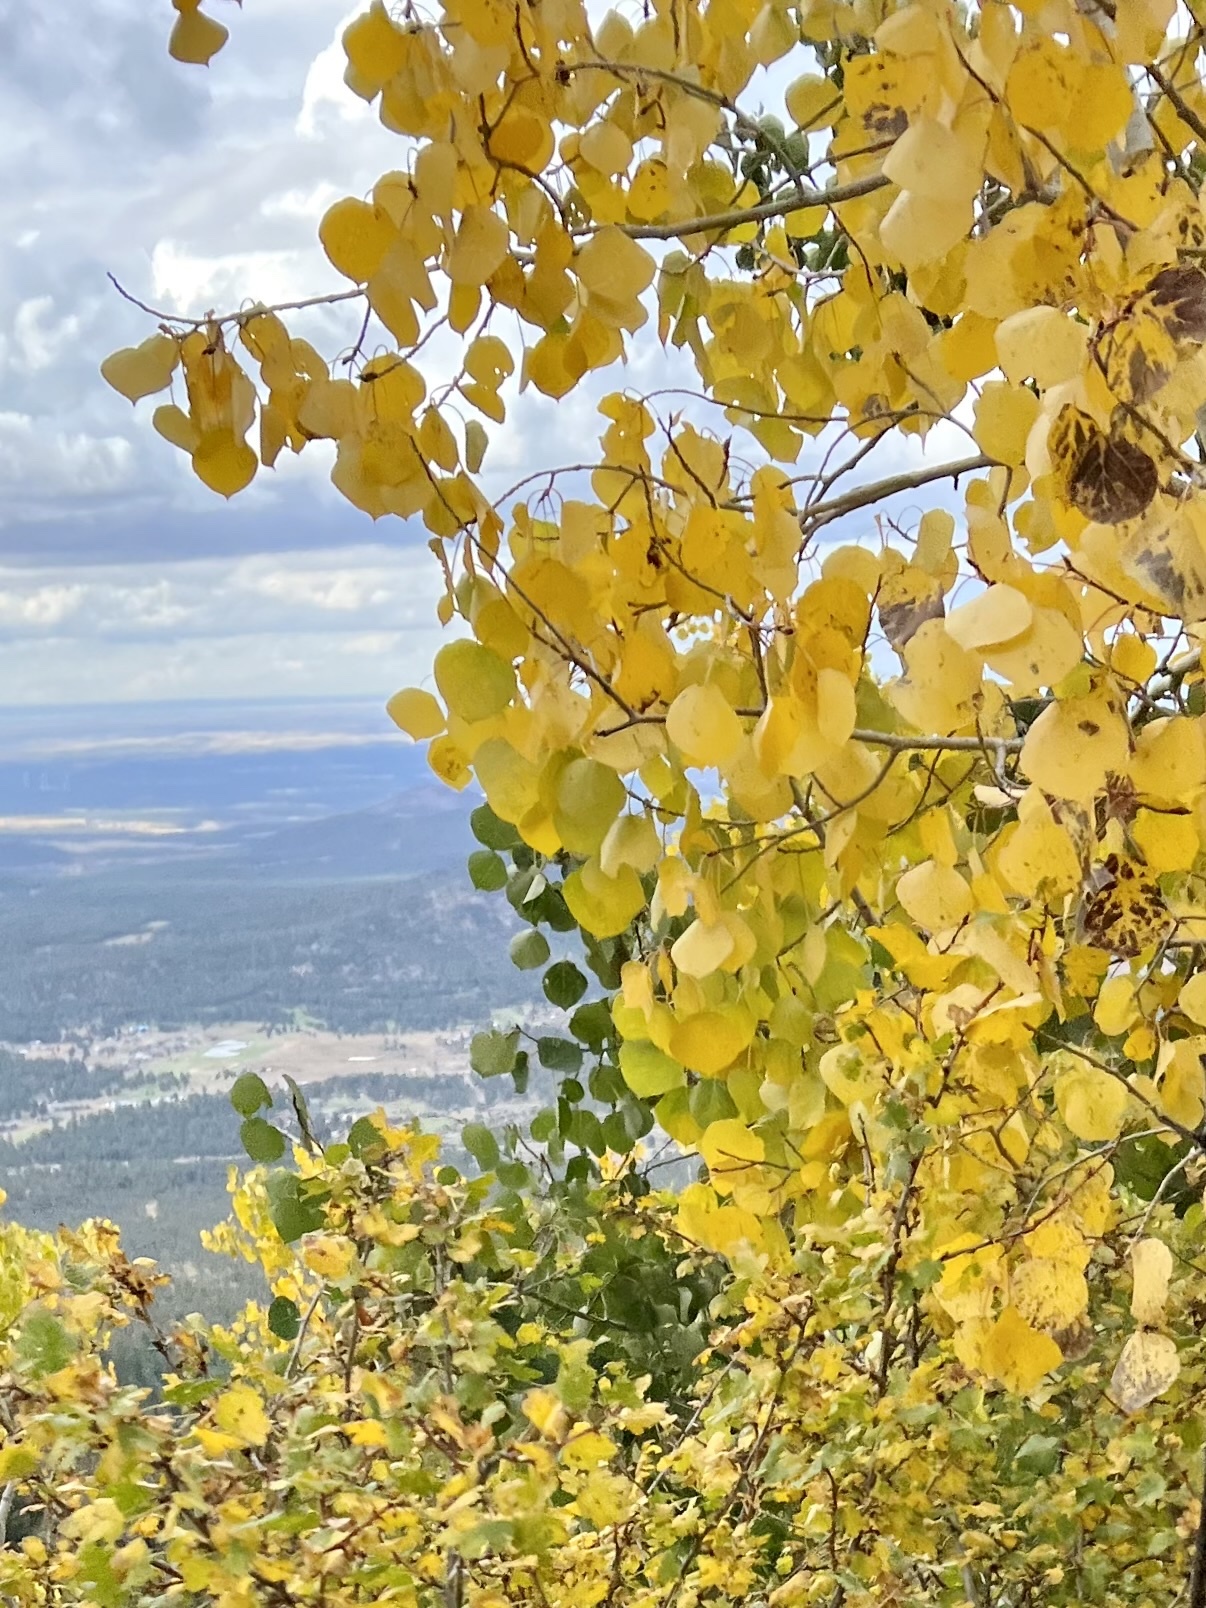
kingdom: Plantae
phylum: Tracheophyta
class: Magnoliopsida
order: Malpighiales
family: Salicaceae
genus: Populus
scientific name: Populus tremuloides
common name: Quaking aspen
